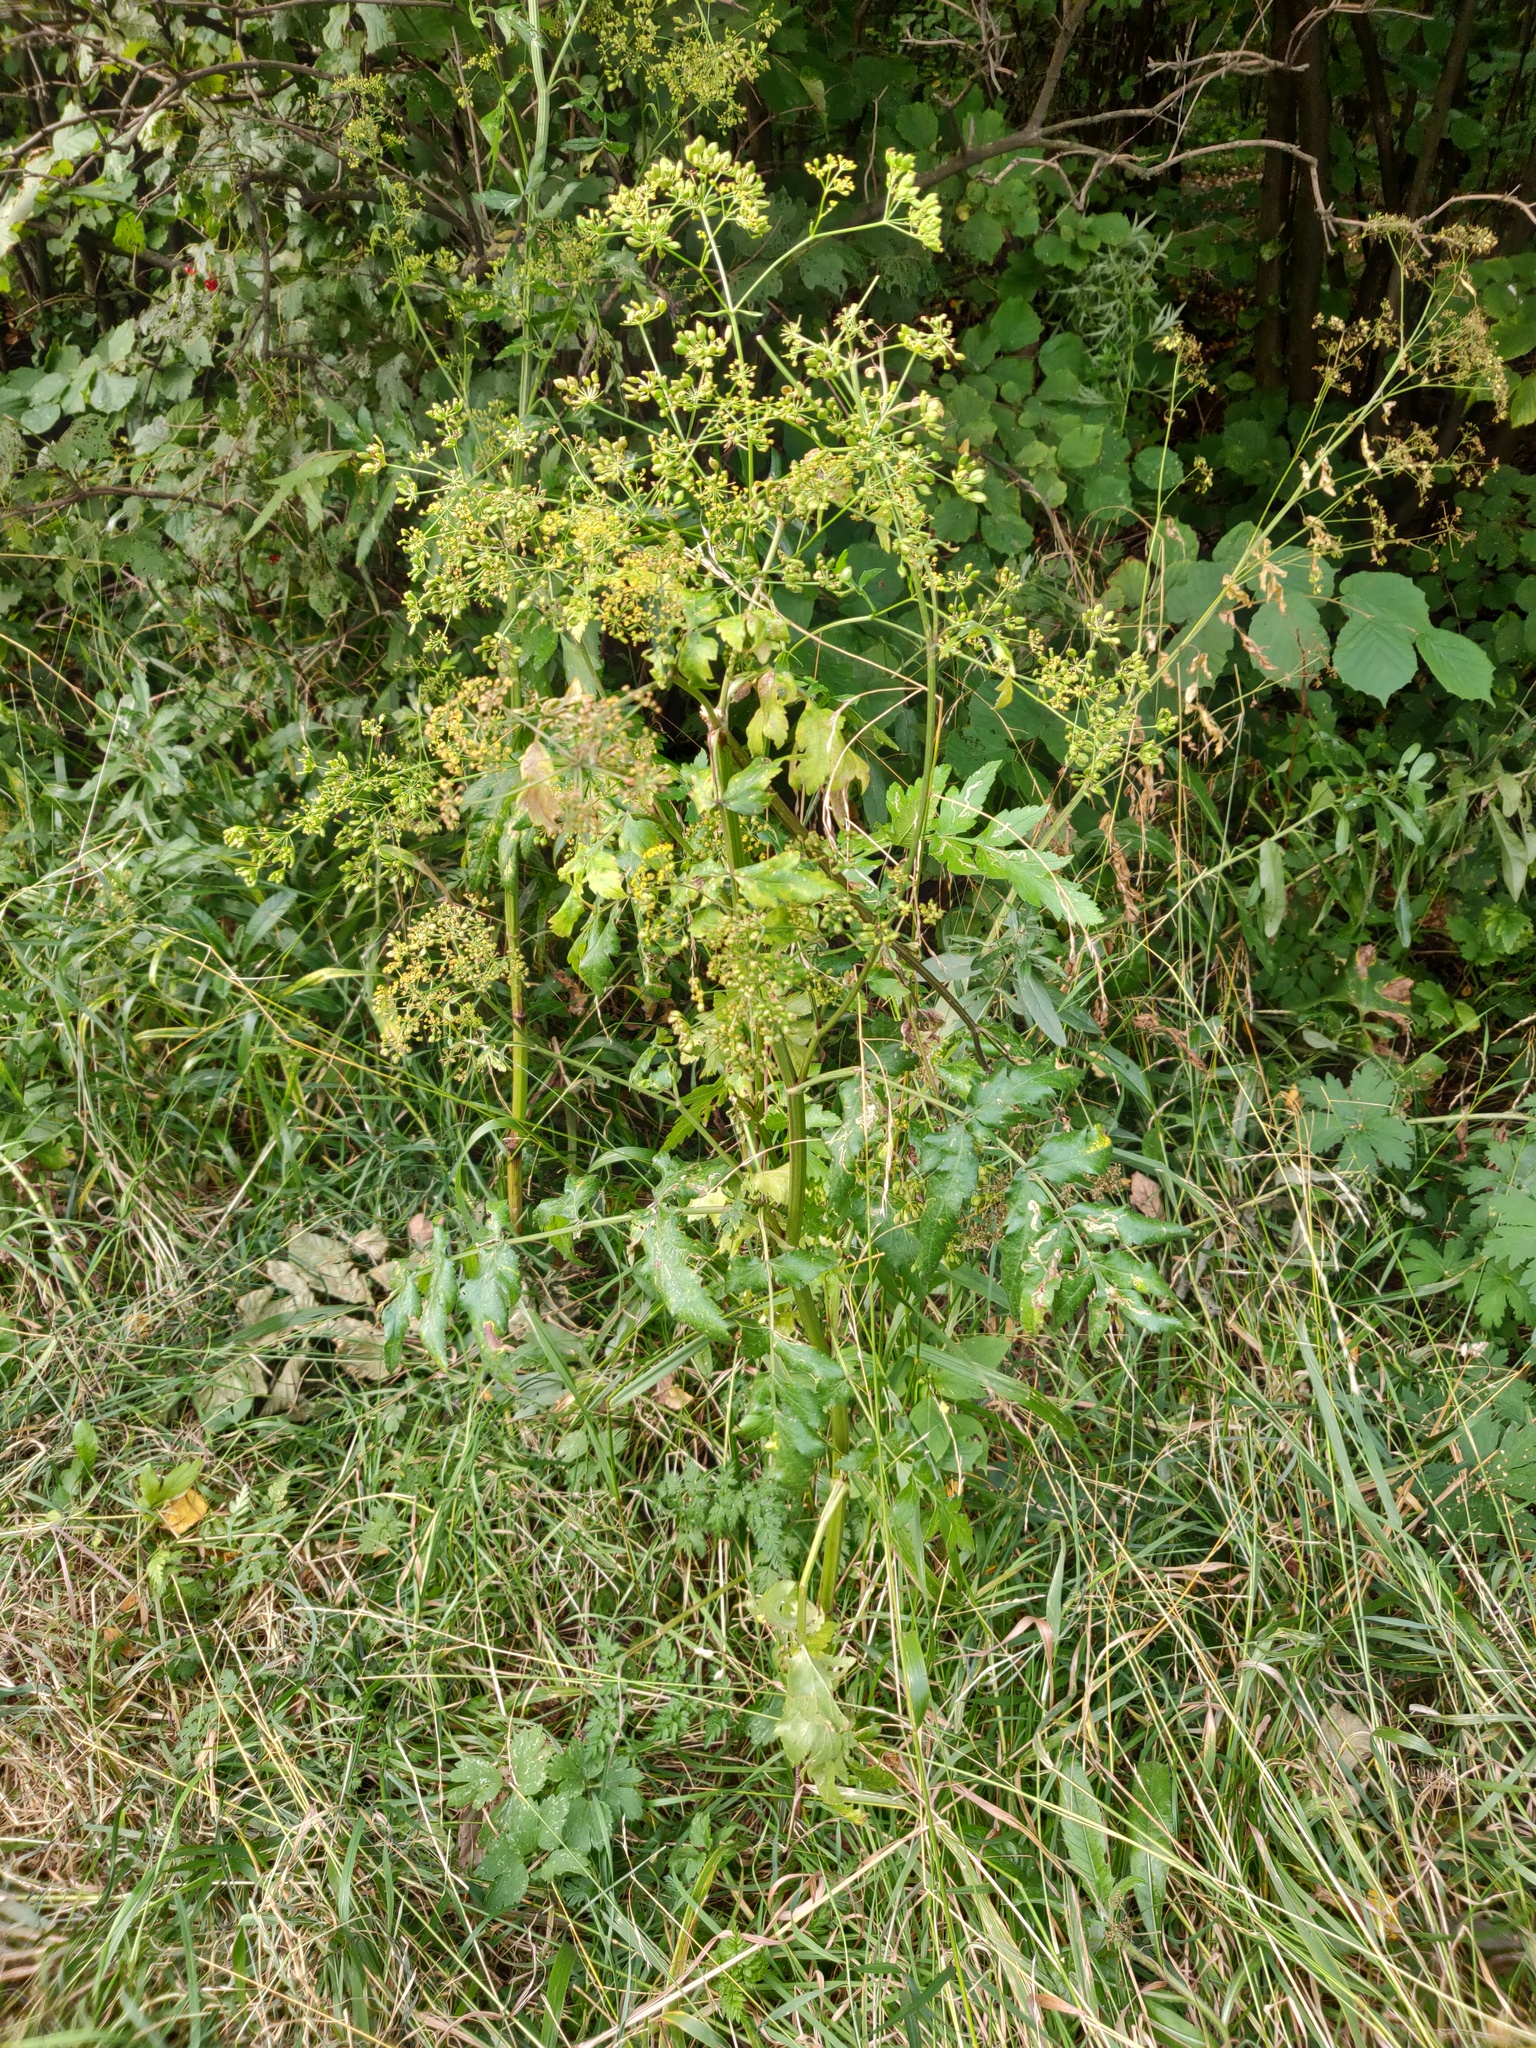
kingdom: Plantae
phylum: Tracheophyta
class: Magnoliopsida
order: Apiales
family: Apiaceae
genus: Pastinaca
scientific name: Pastinaca sativa
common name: Wild parsnip
